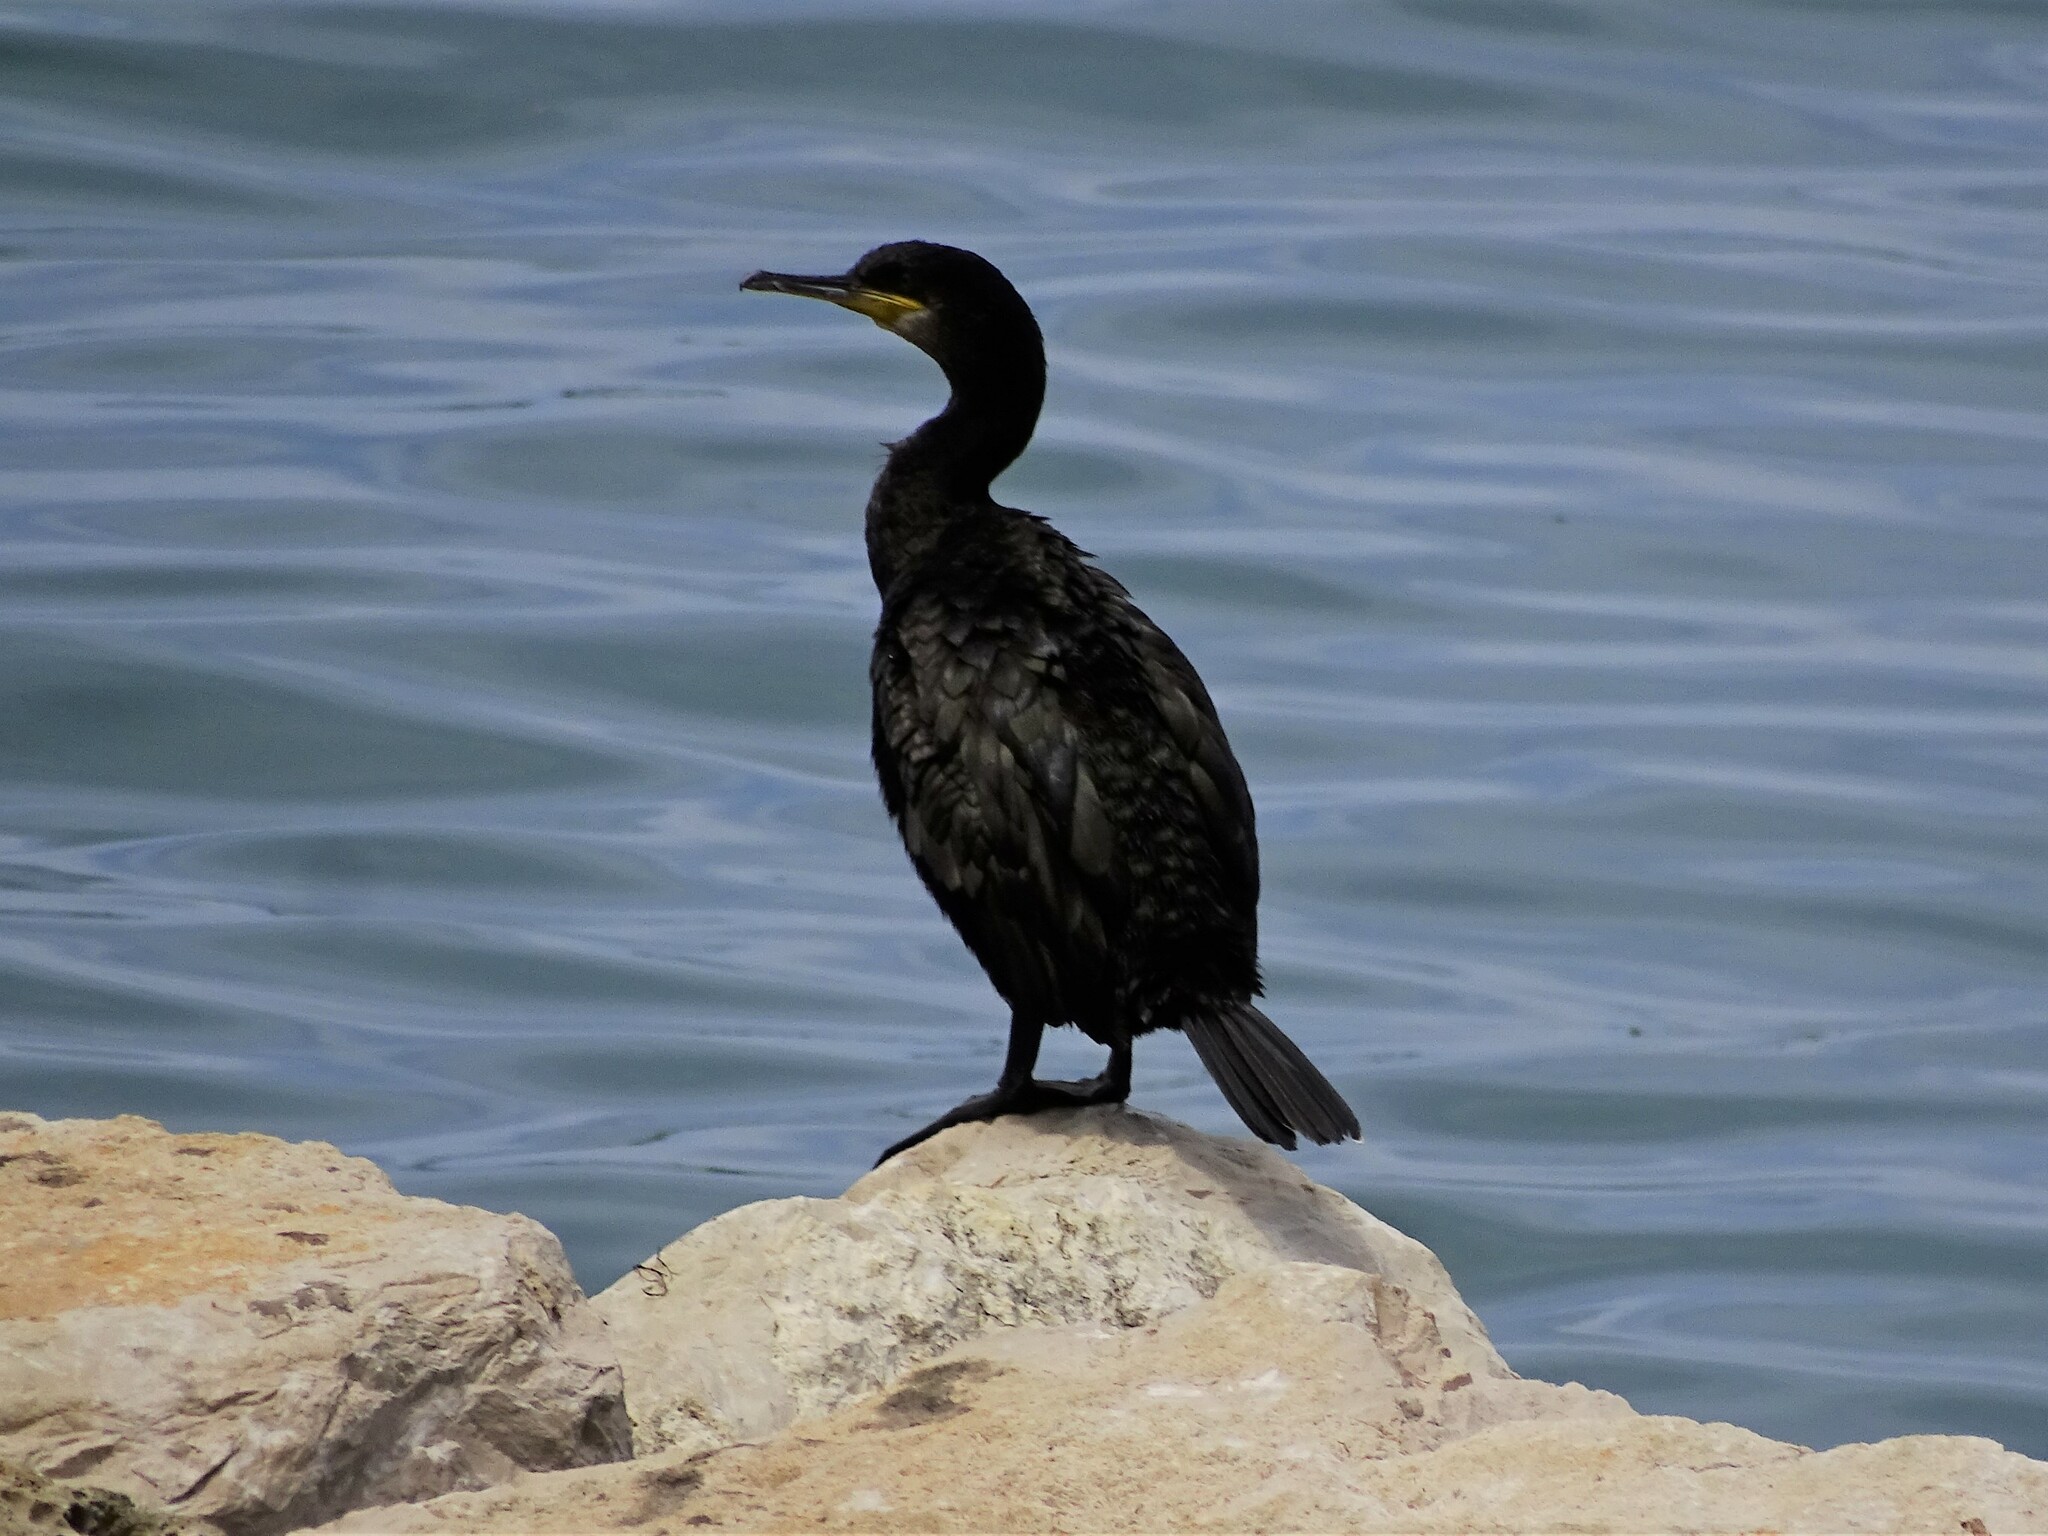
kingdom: Animalia
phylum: Chordata
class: Aves
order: Suliformes
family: Phalacrocoracidae
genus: Phalacrocorax
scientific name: Phalacrocorax aristotelis
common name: European shag
